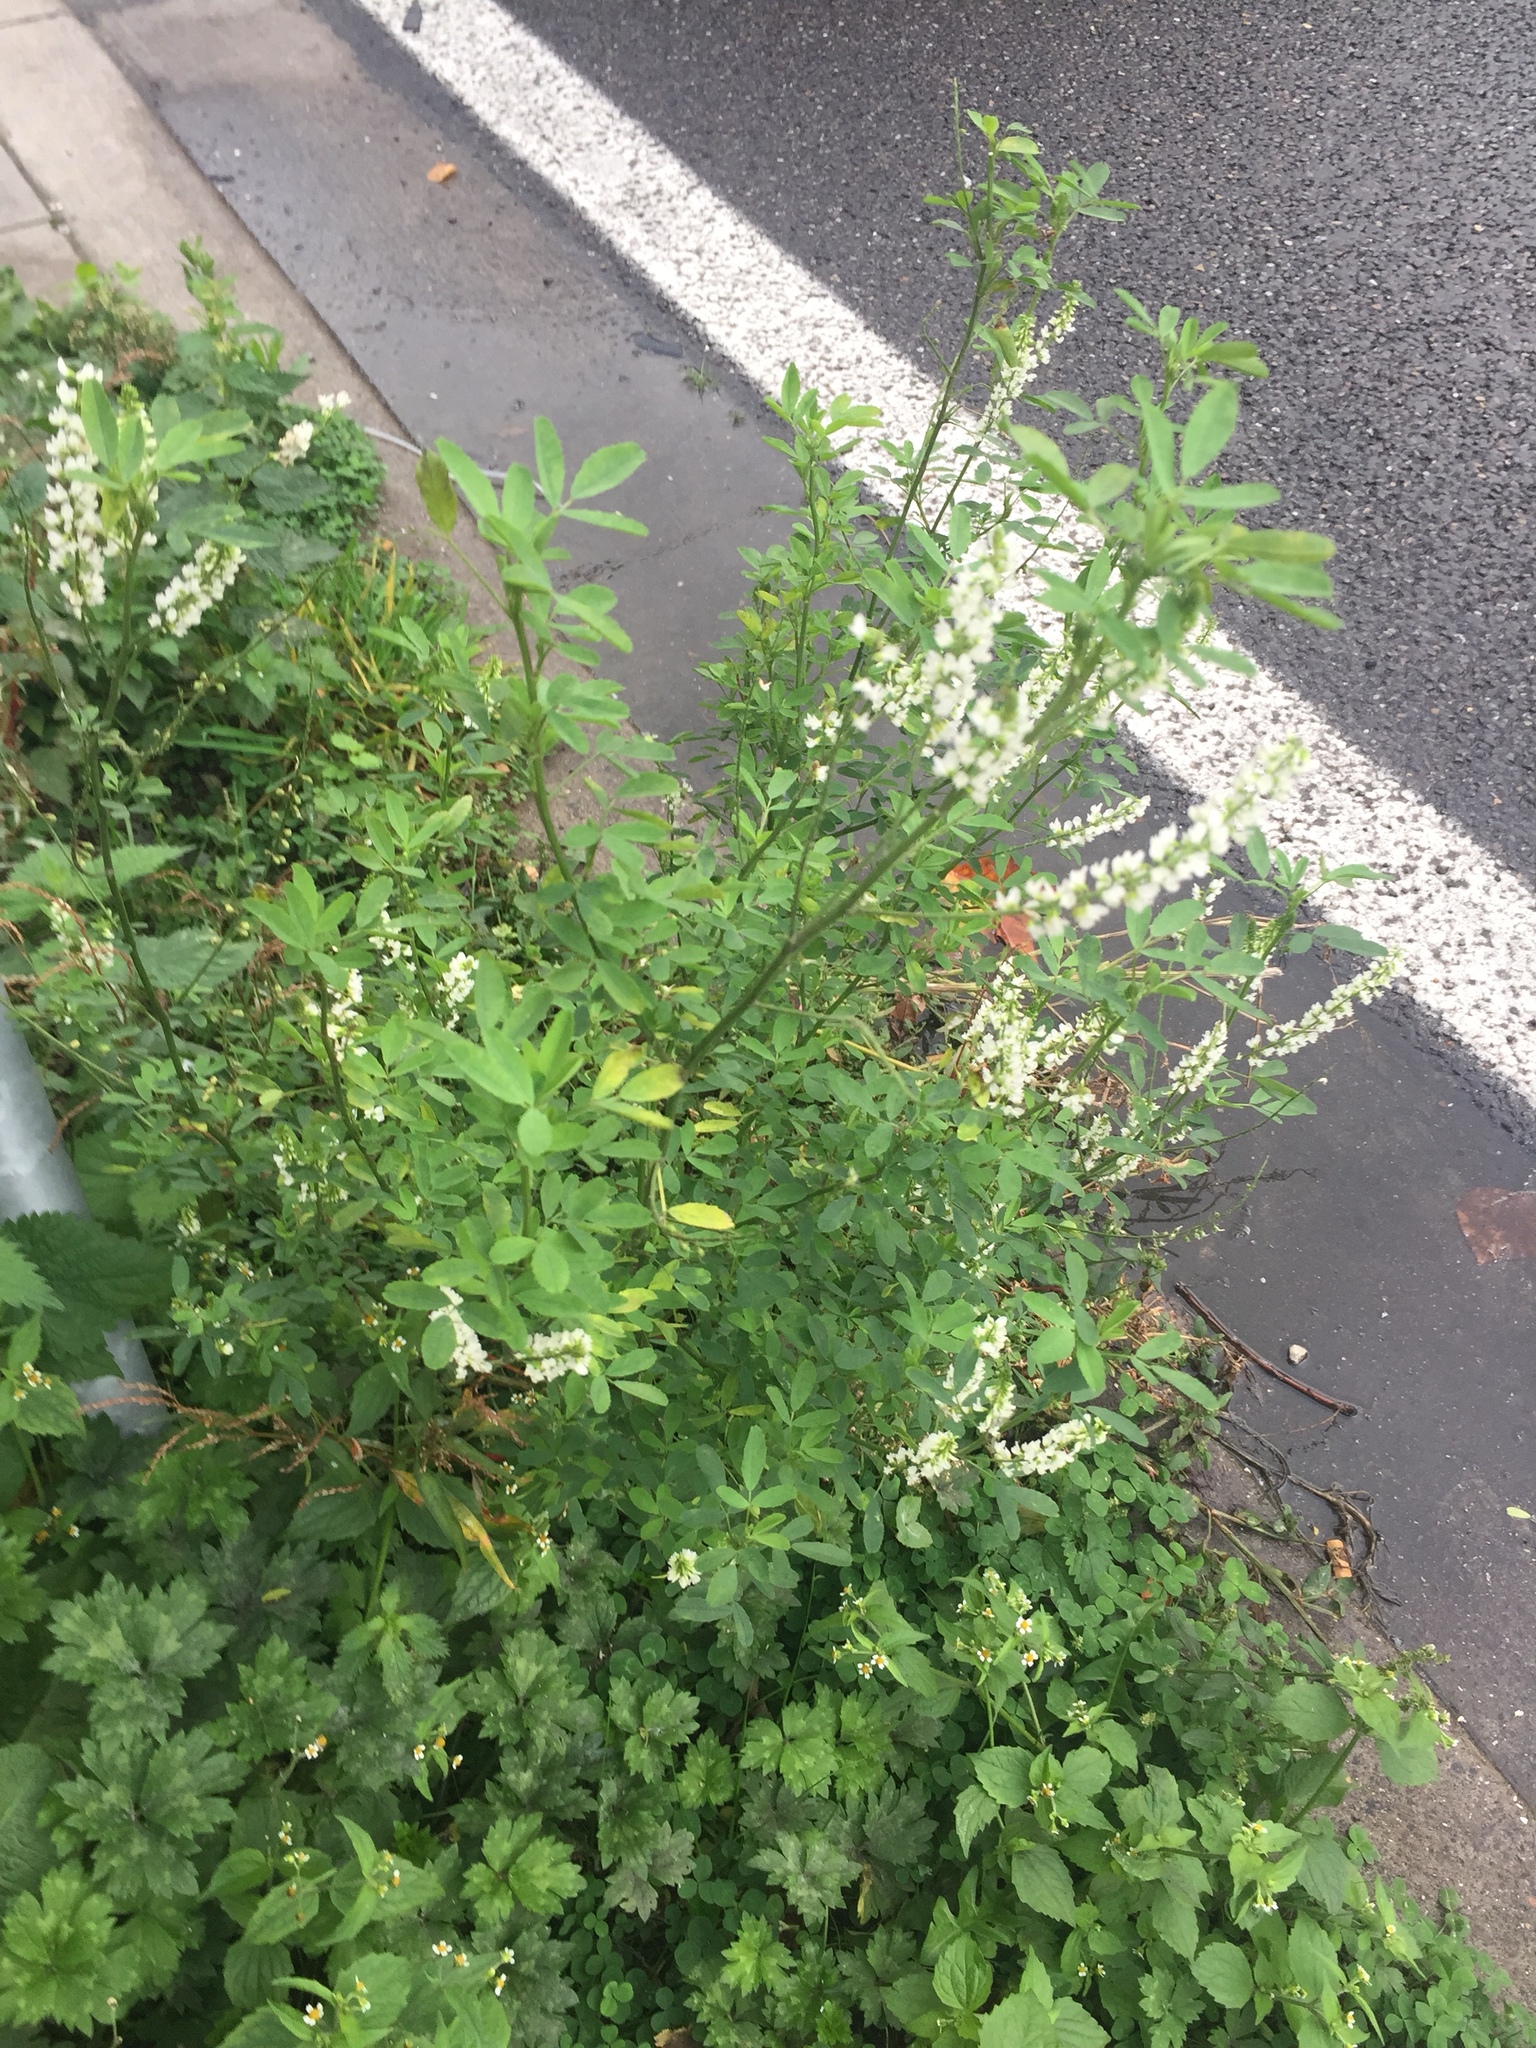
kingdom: Plantae
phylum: Tracheophyta
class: Magnoliopsida
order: Fabales
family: Fabaceae
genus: Melilotus
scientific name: Melilotus albus
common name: White melilot
